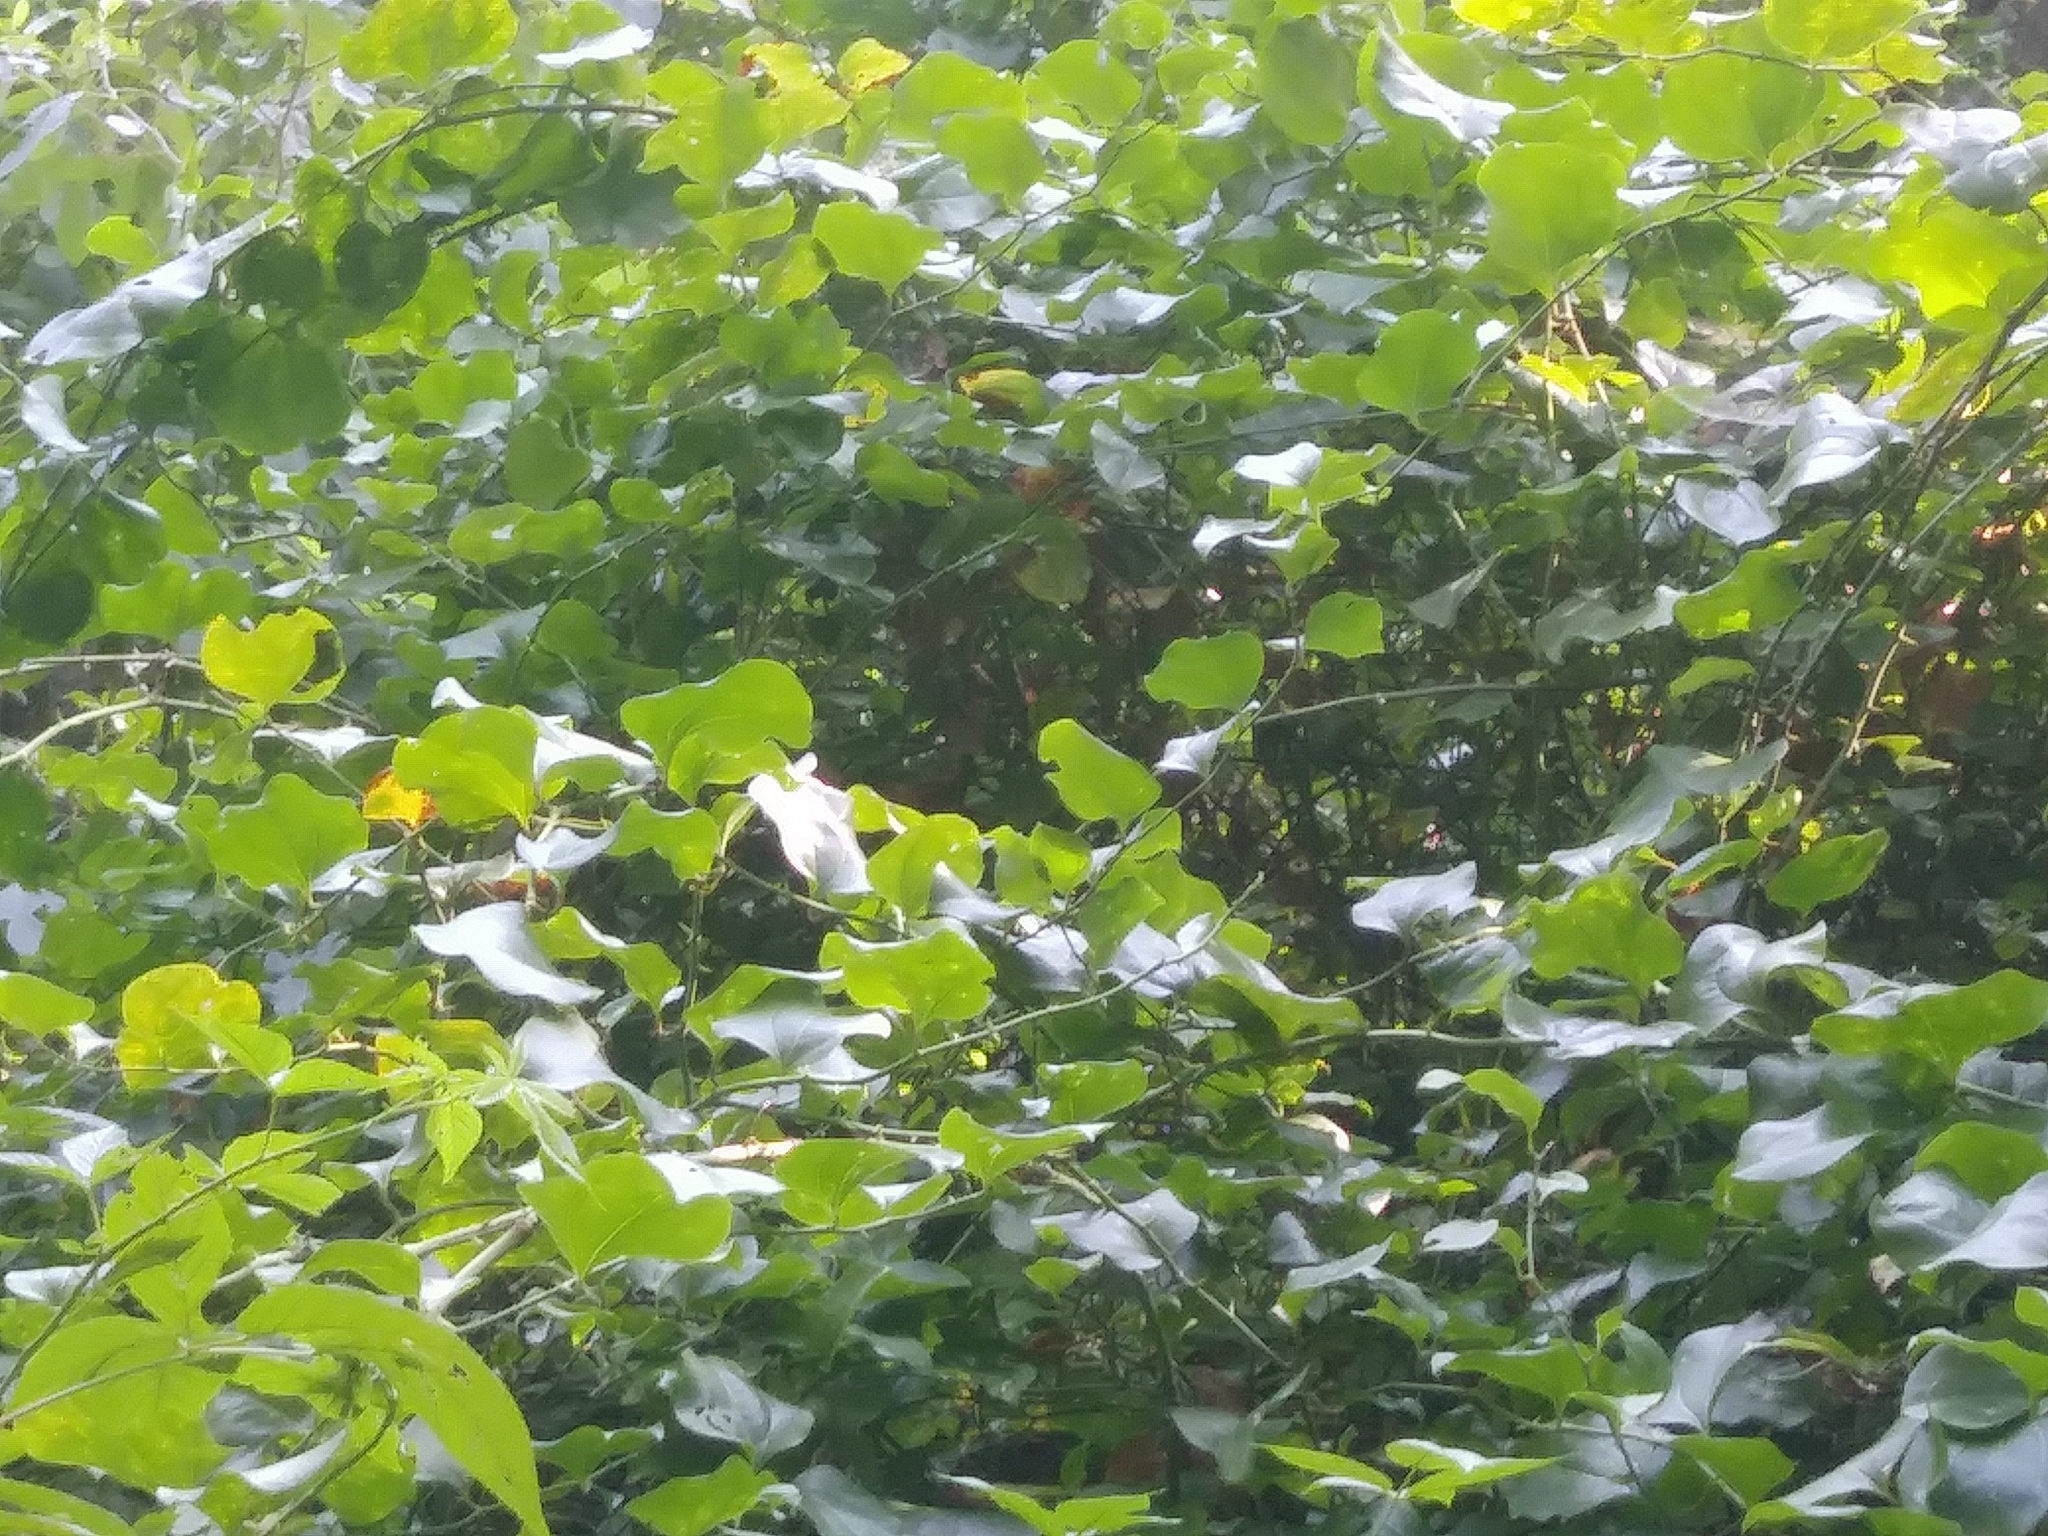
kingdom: Animalia
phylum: Arthropoda
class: Insecta
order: Lepidoptera
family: Nymphalidae
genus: Cercyonis
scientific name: Cercyonis pegala
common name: Common wood-nymph
